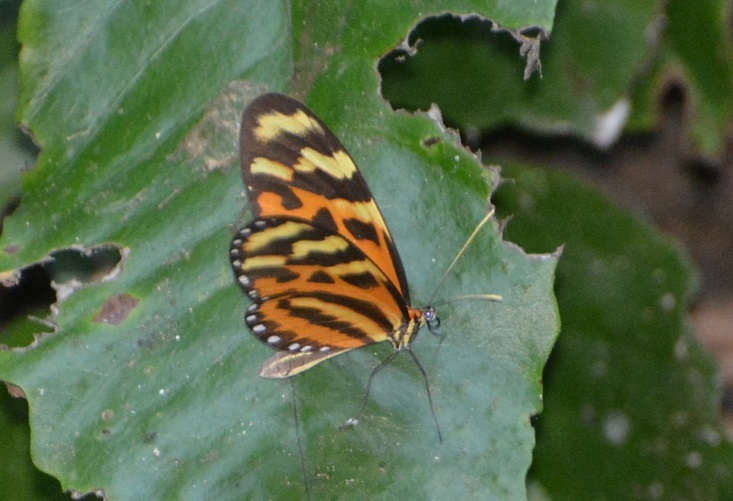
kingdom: Animalia
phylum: Arthropoda
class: Insecta
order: Lepidoptera
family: Nymphalidae
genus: Mechanitis
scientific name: Mechanitis lysimnia
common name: Lysimnia tigerwing
